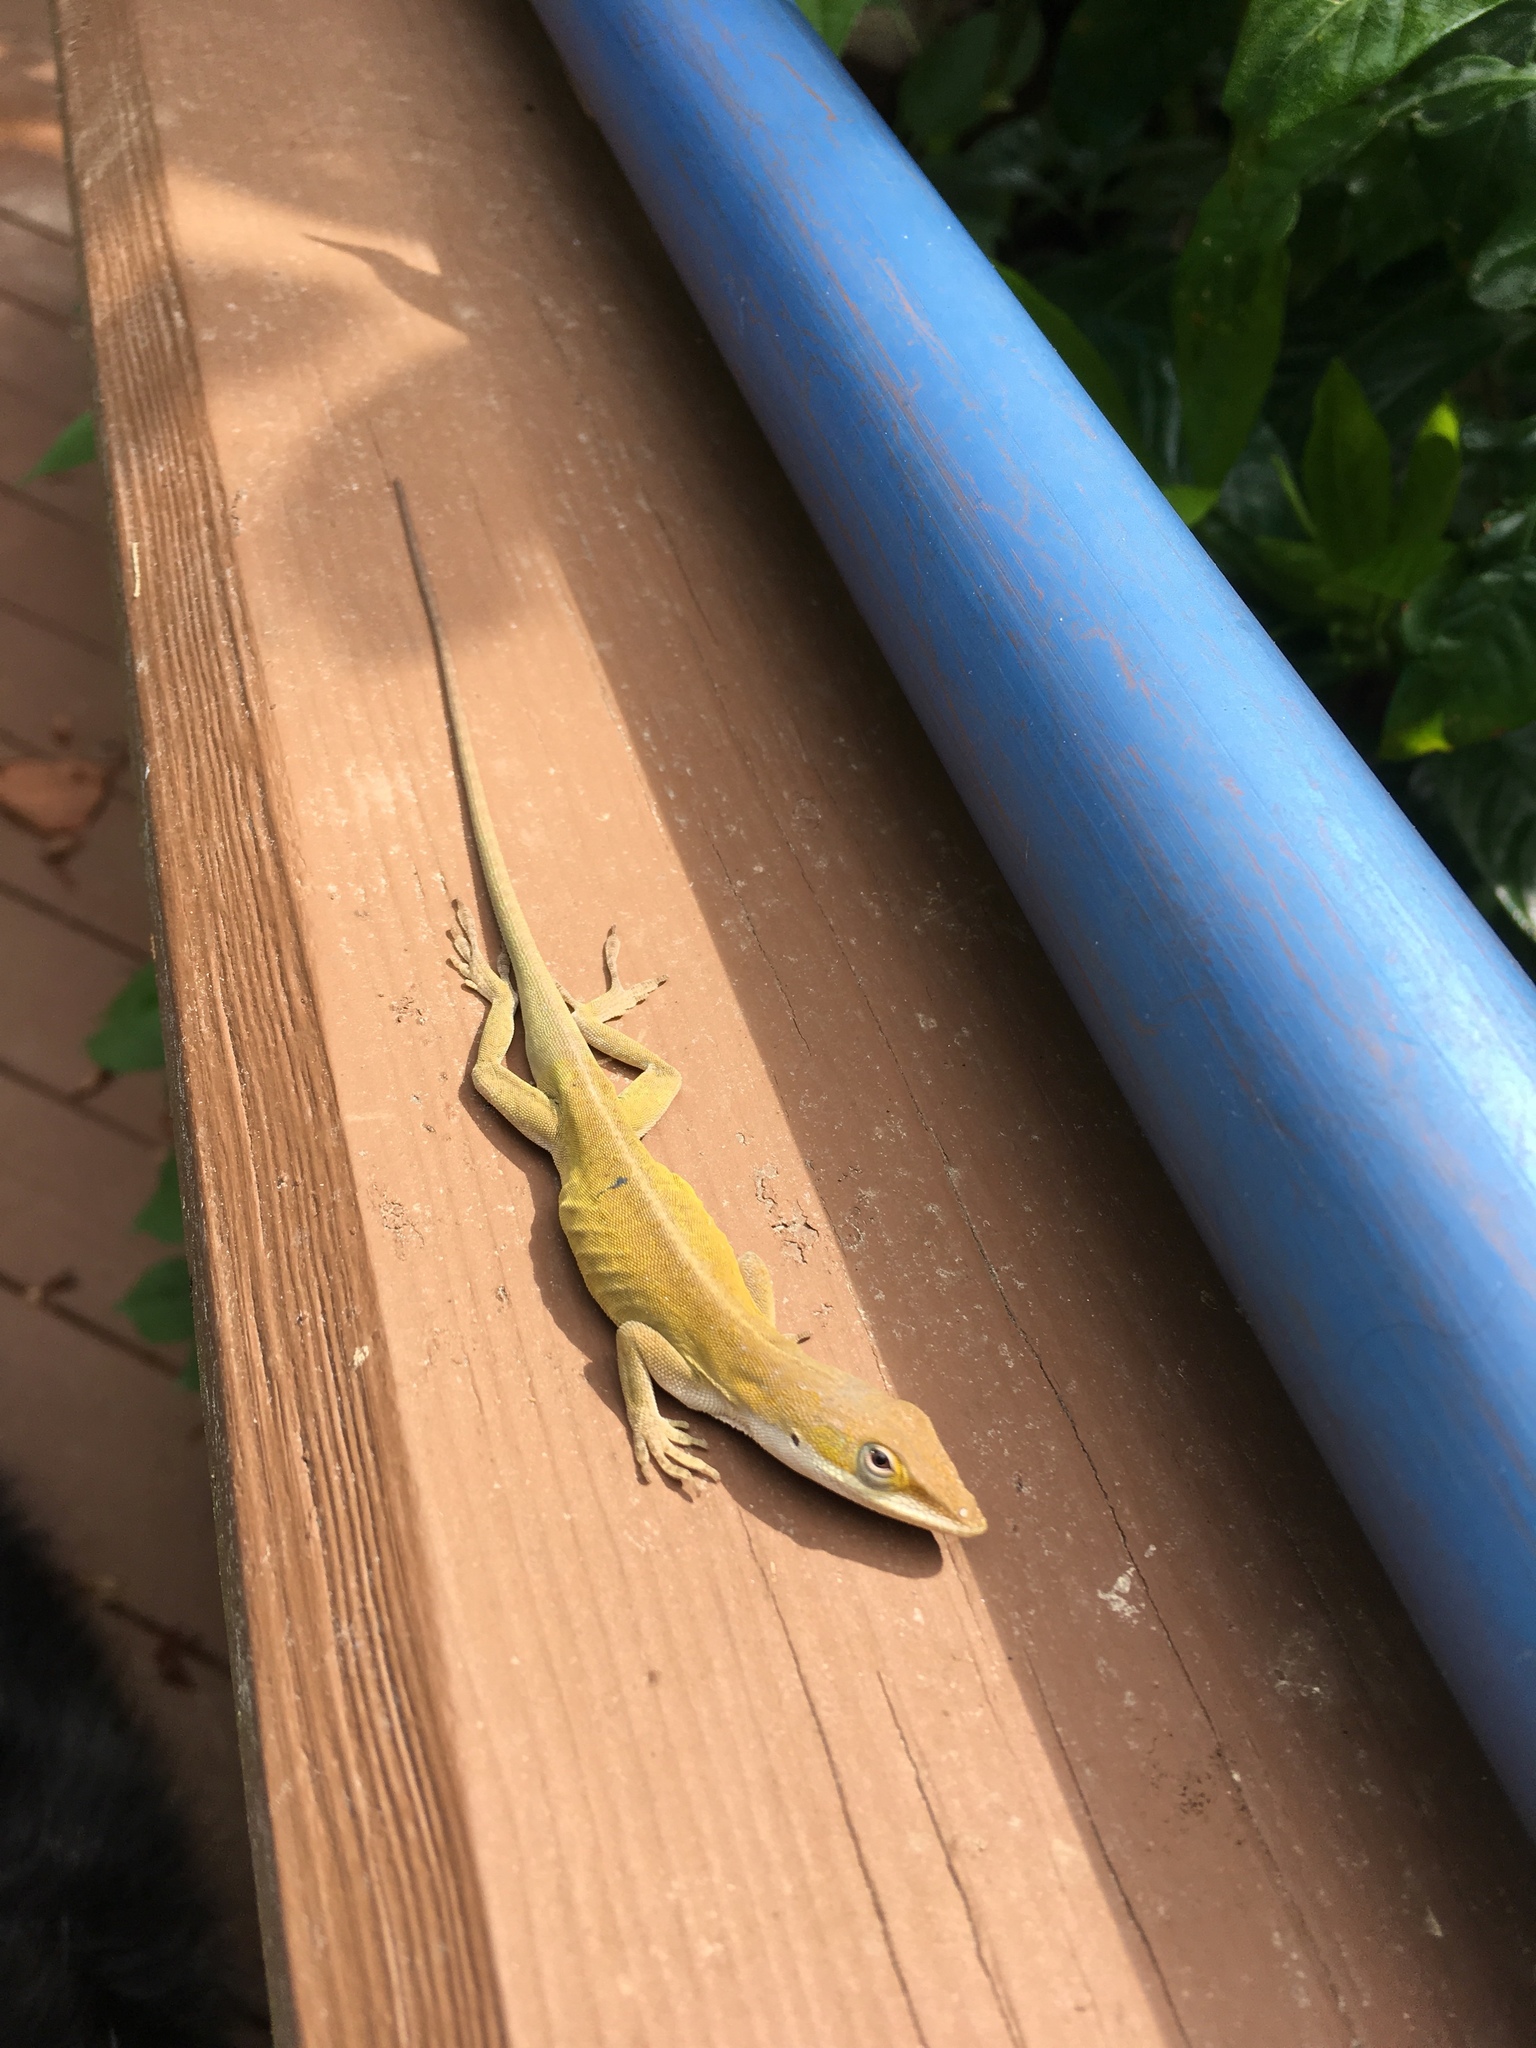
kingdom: Animalia
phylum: Chordata
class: Squamata
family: Dactyloidae
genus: Anolis
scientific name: Anolis carolinensis
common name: Green anole
